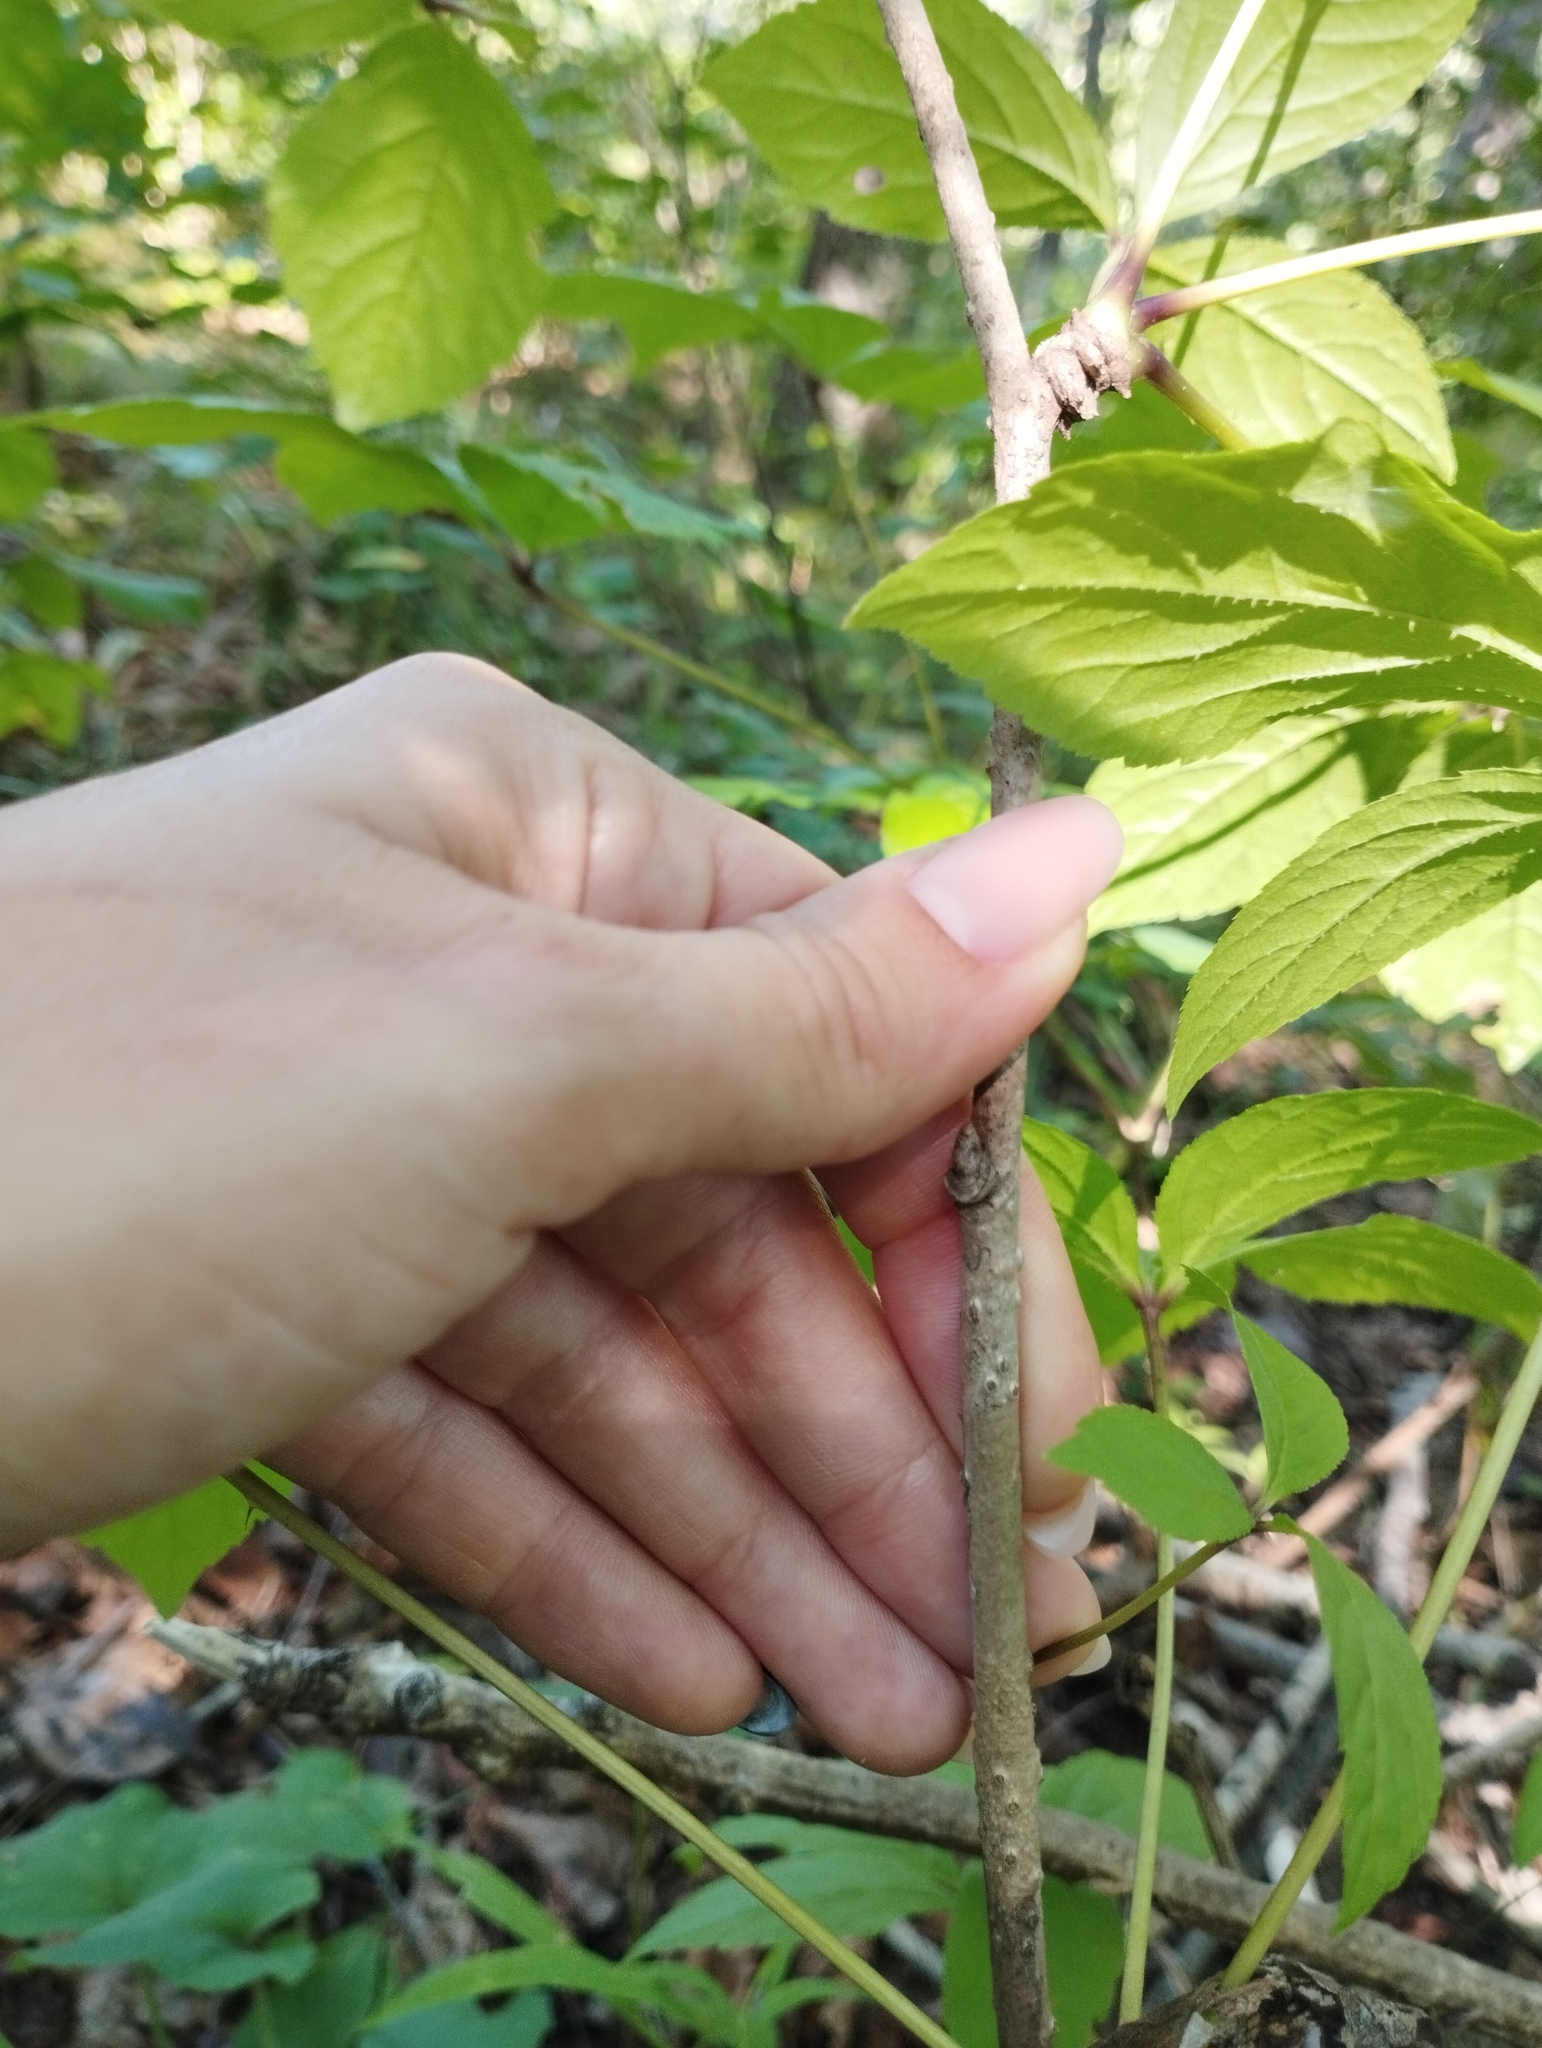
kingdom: Plantae
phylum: Tracheophyta
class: Magnoliopsida
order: Apiales
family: Araliaceae
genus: Eleutherococcus
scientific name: Eleutherococcus sessiliflorus
